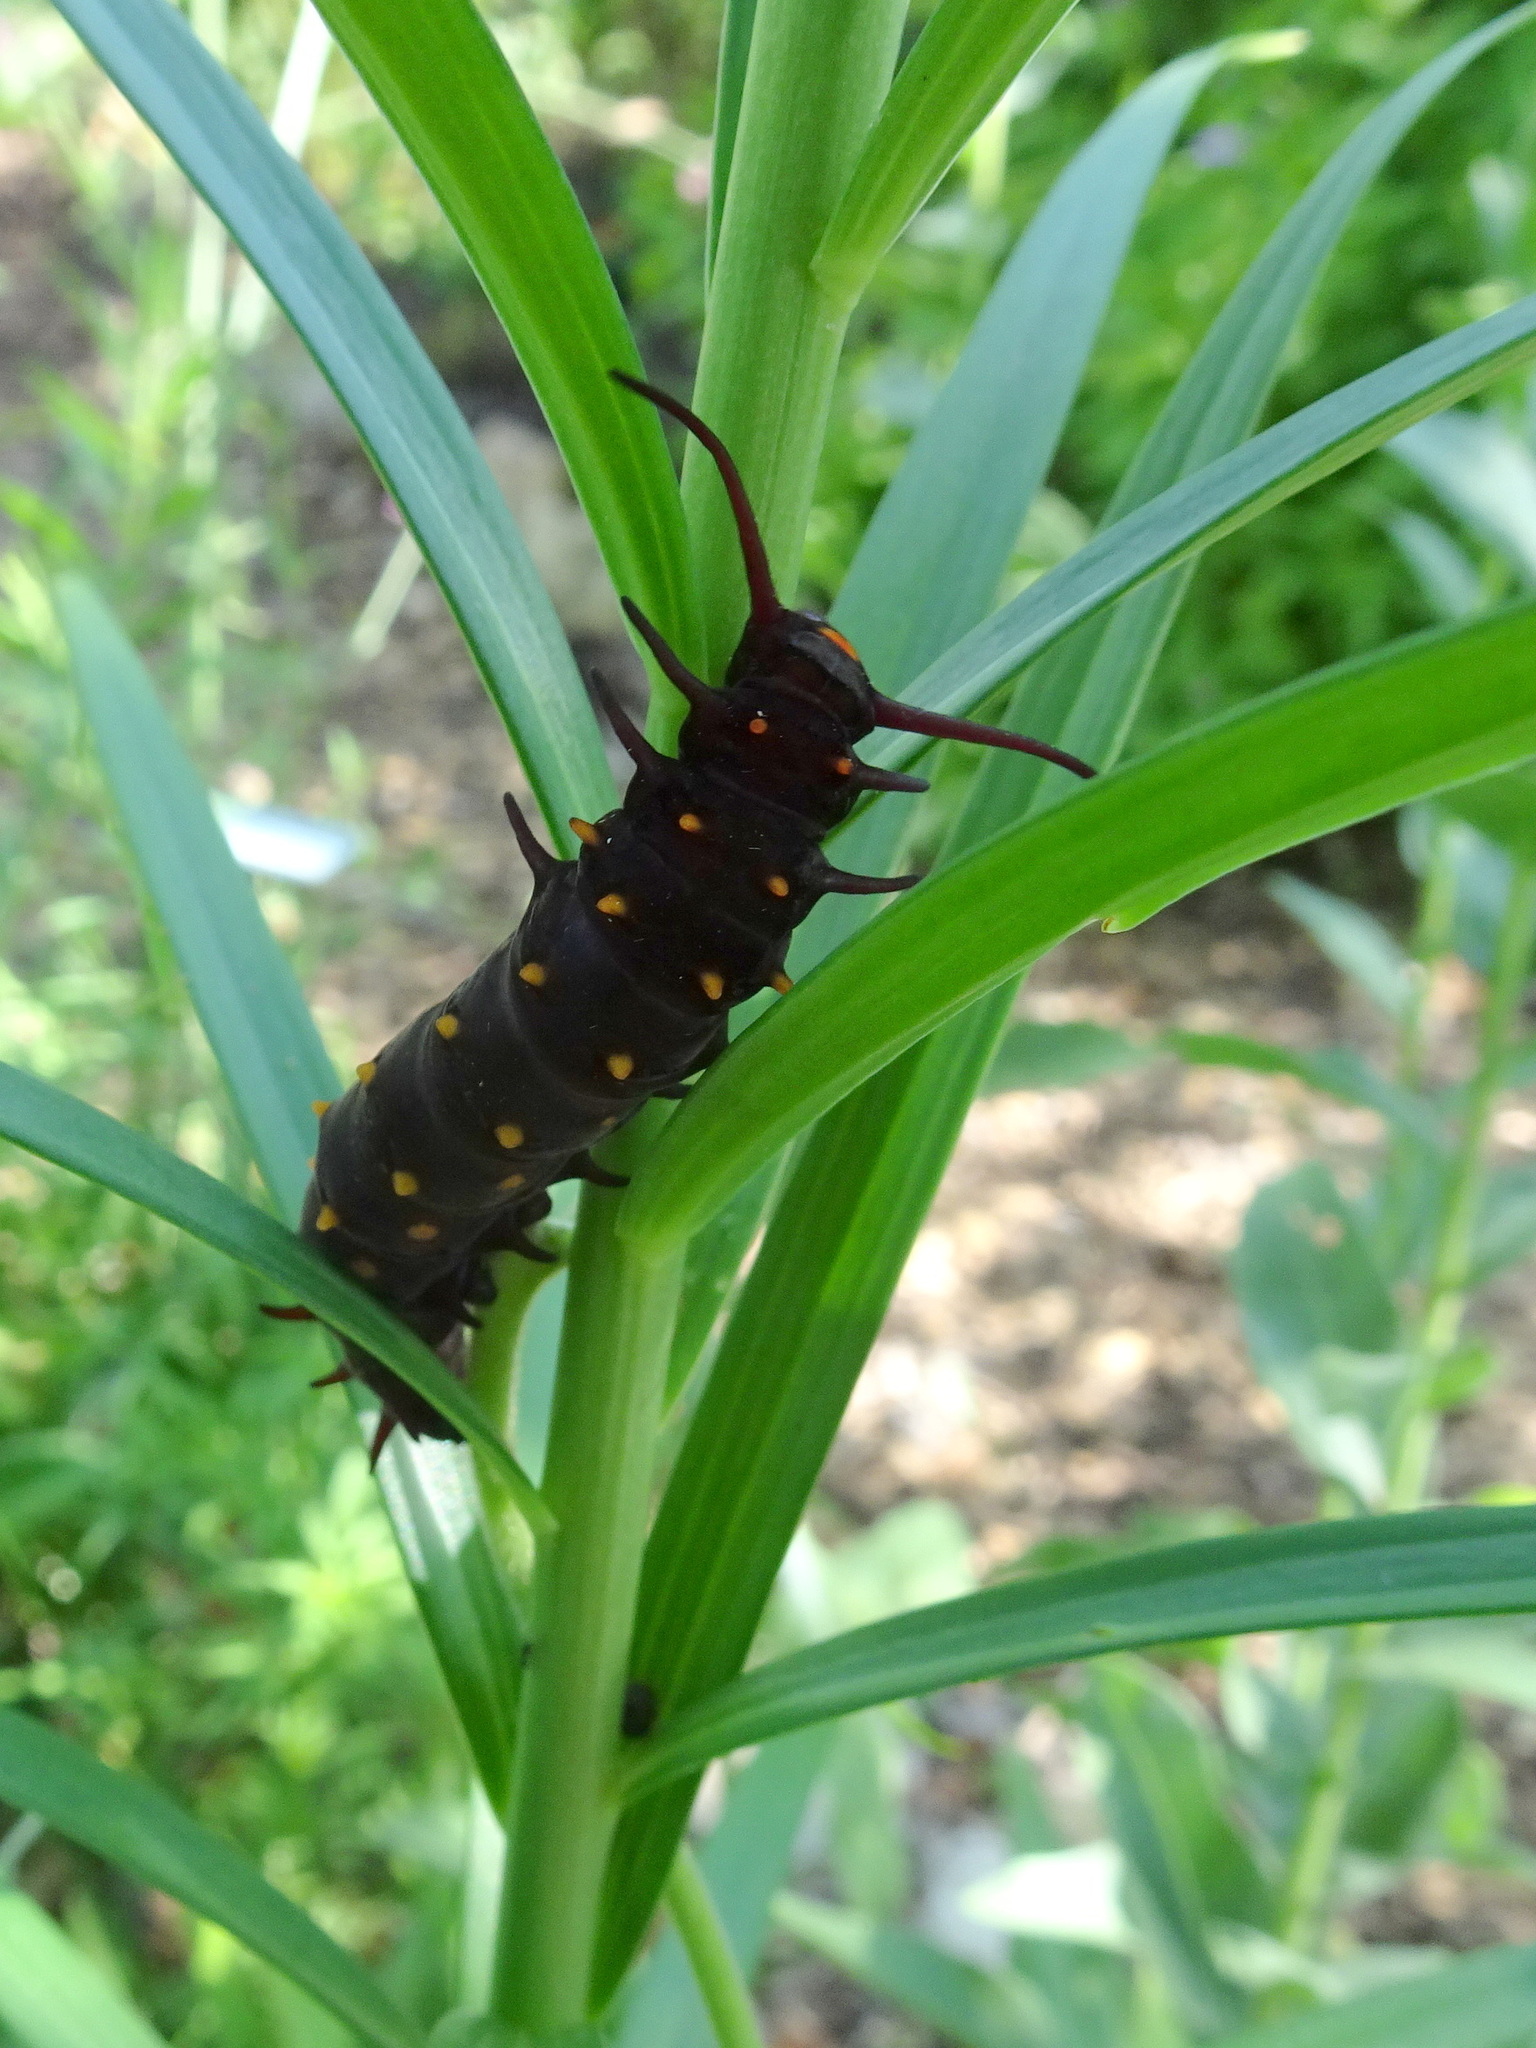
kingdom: Animalia
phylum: Arthropoda
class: Insecta
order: Lepidoptera
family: Papilionidae
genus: Battus
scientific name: Battus philenor
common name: Pipevine swallowtail
